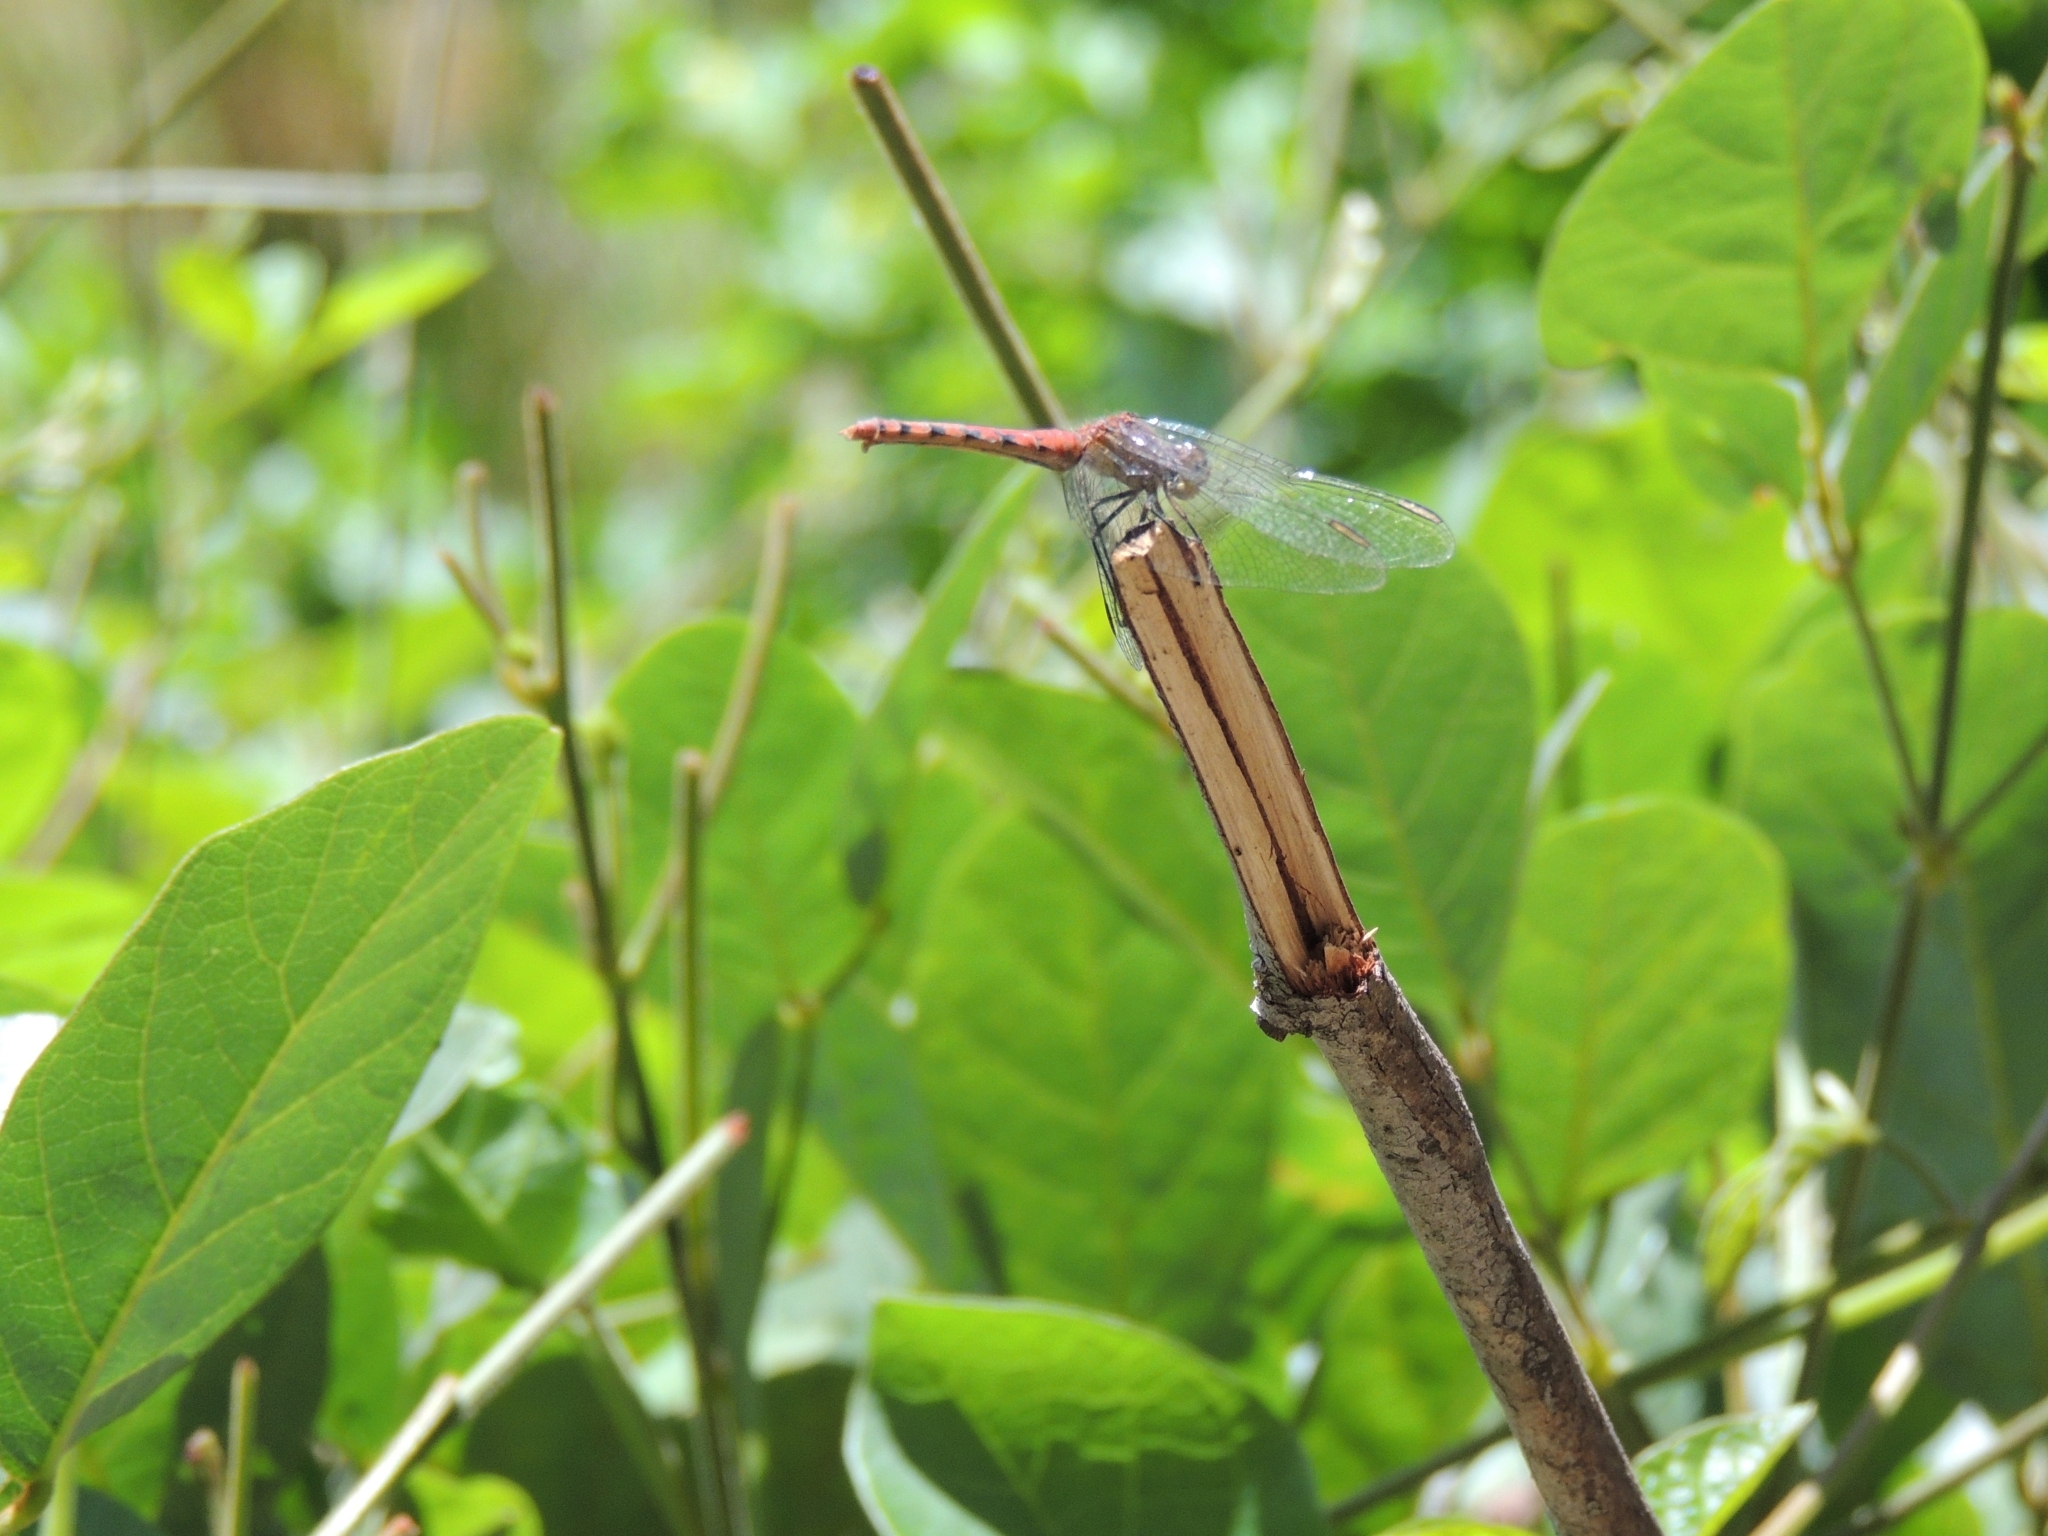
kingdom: Animalia
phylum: Arthropoda
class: Insecta
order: Odonata
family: Libellulidae
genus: Diplacodes
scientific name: Diplacodes melanopsis
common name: Black-faced percher
